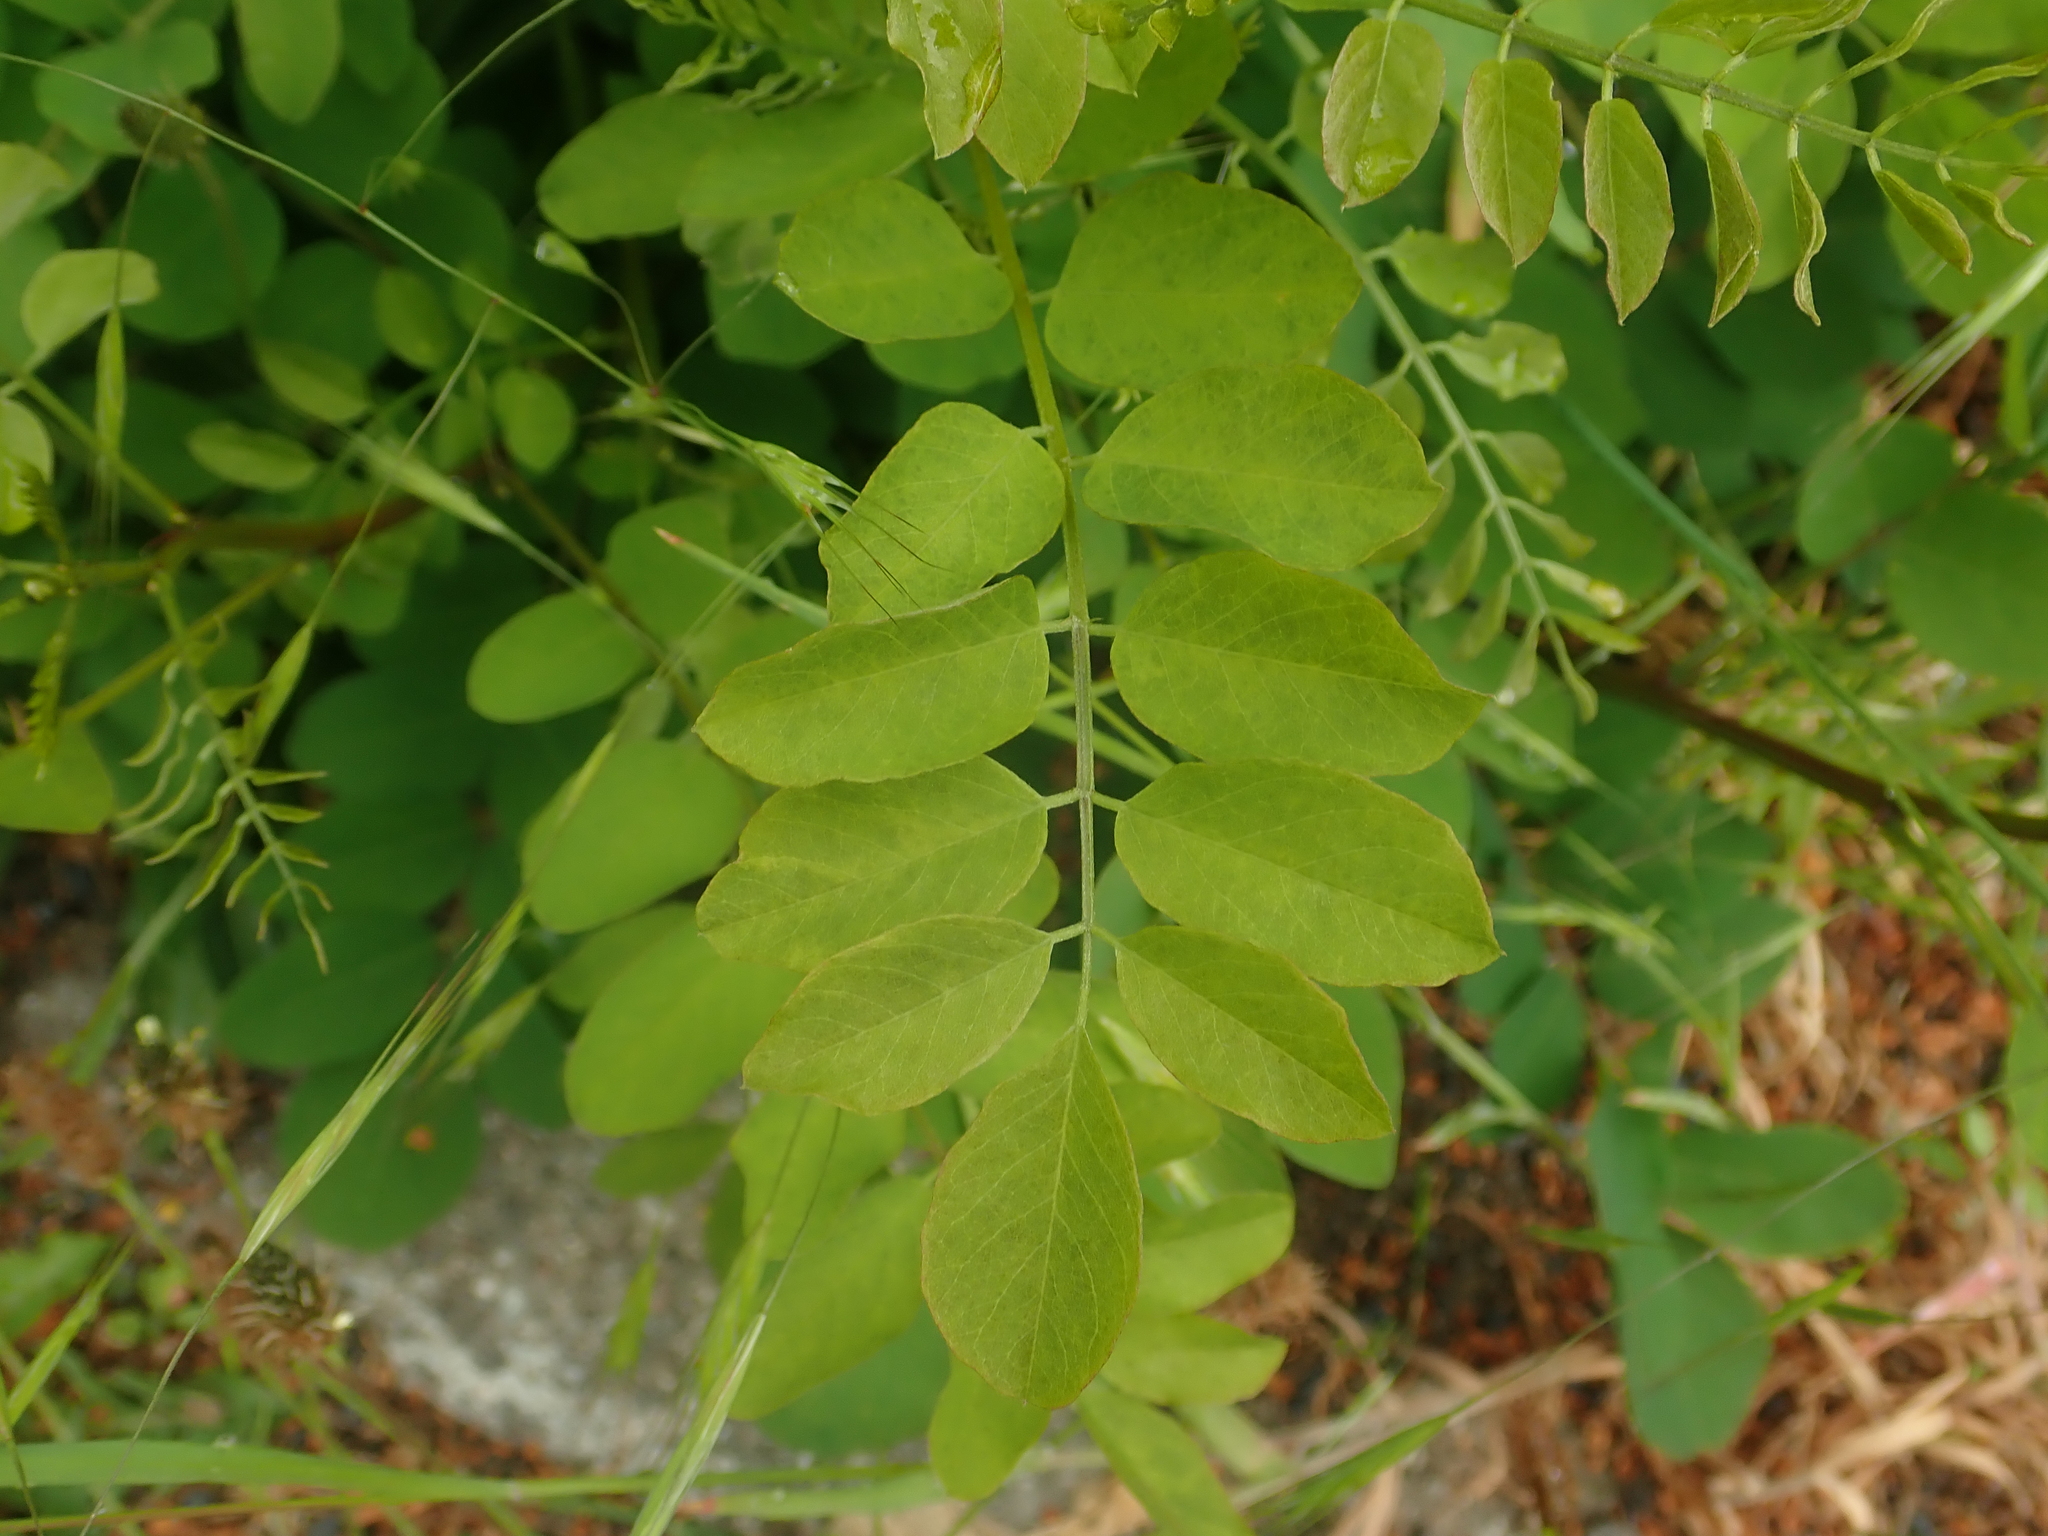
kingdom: Plantae
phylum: Tracheophyta
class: Magnoliopsida
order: Fabales
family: Fabaceae
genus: Robinia
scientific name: Robinia pseudoacacia
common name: Black locust
